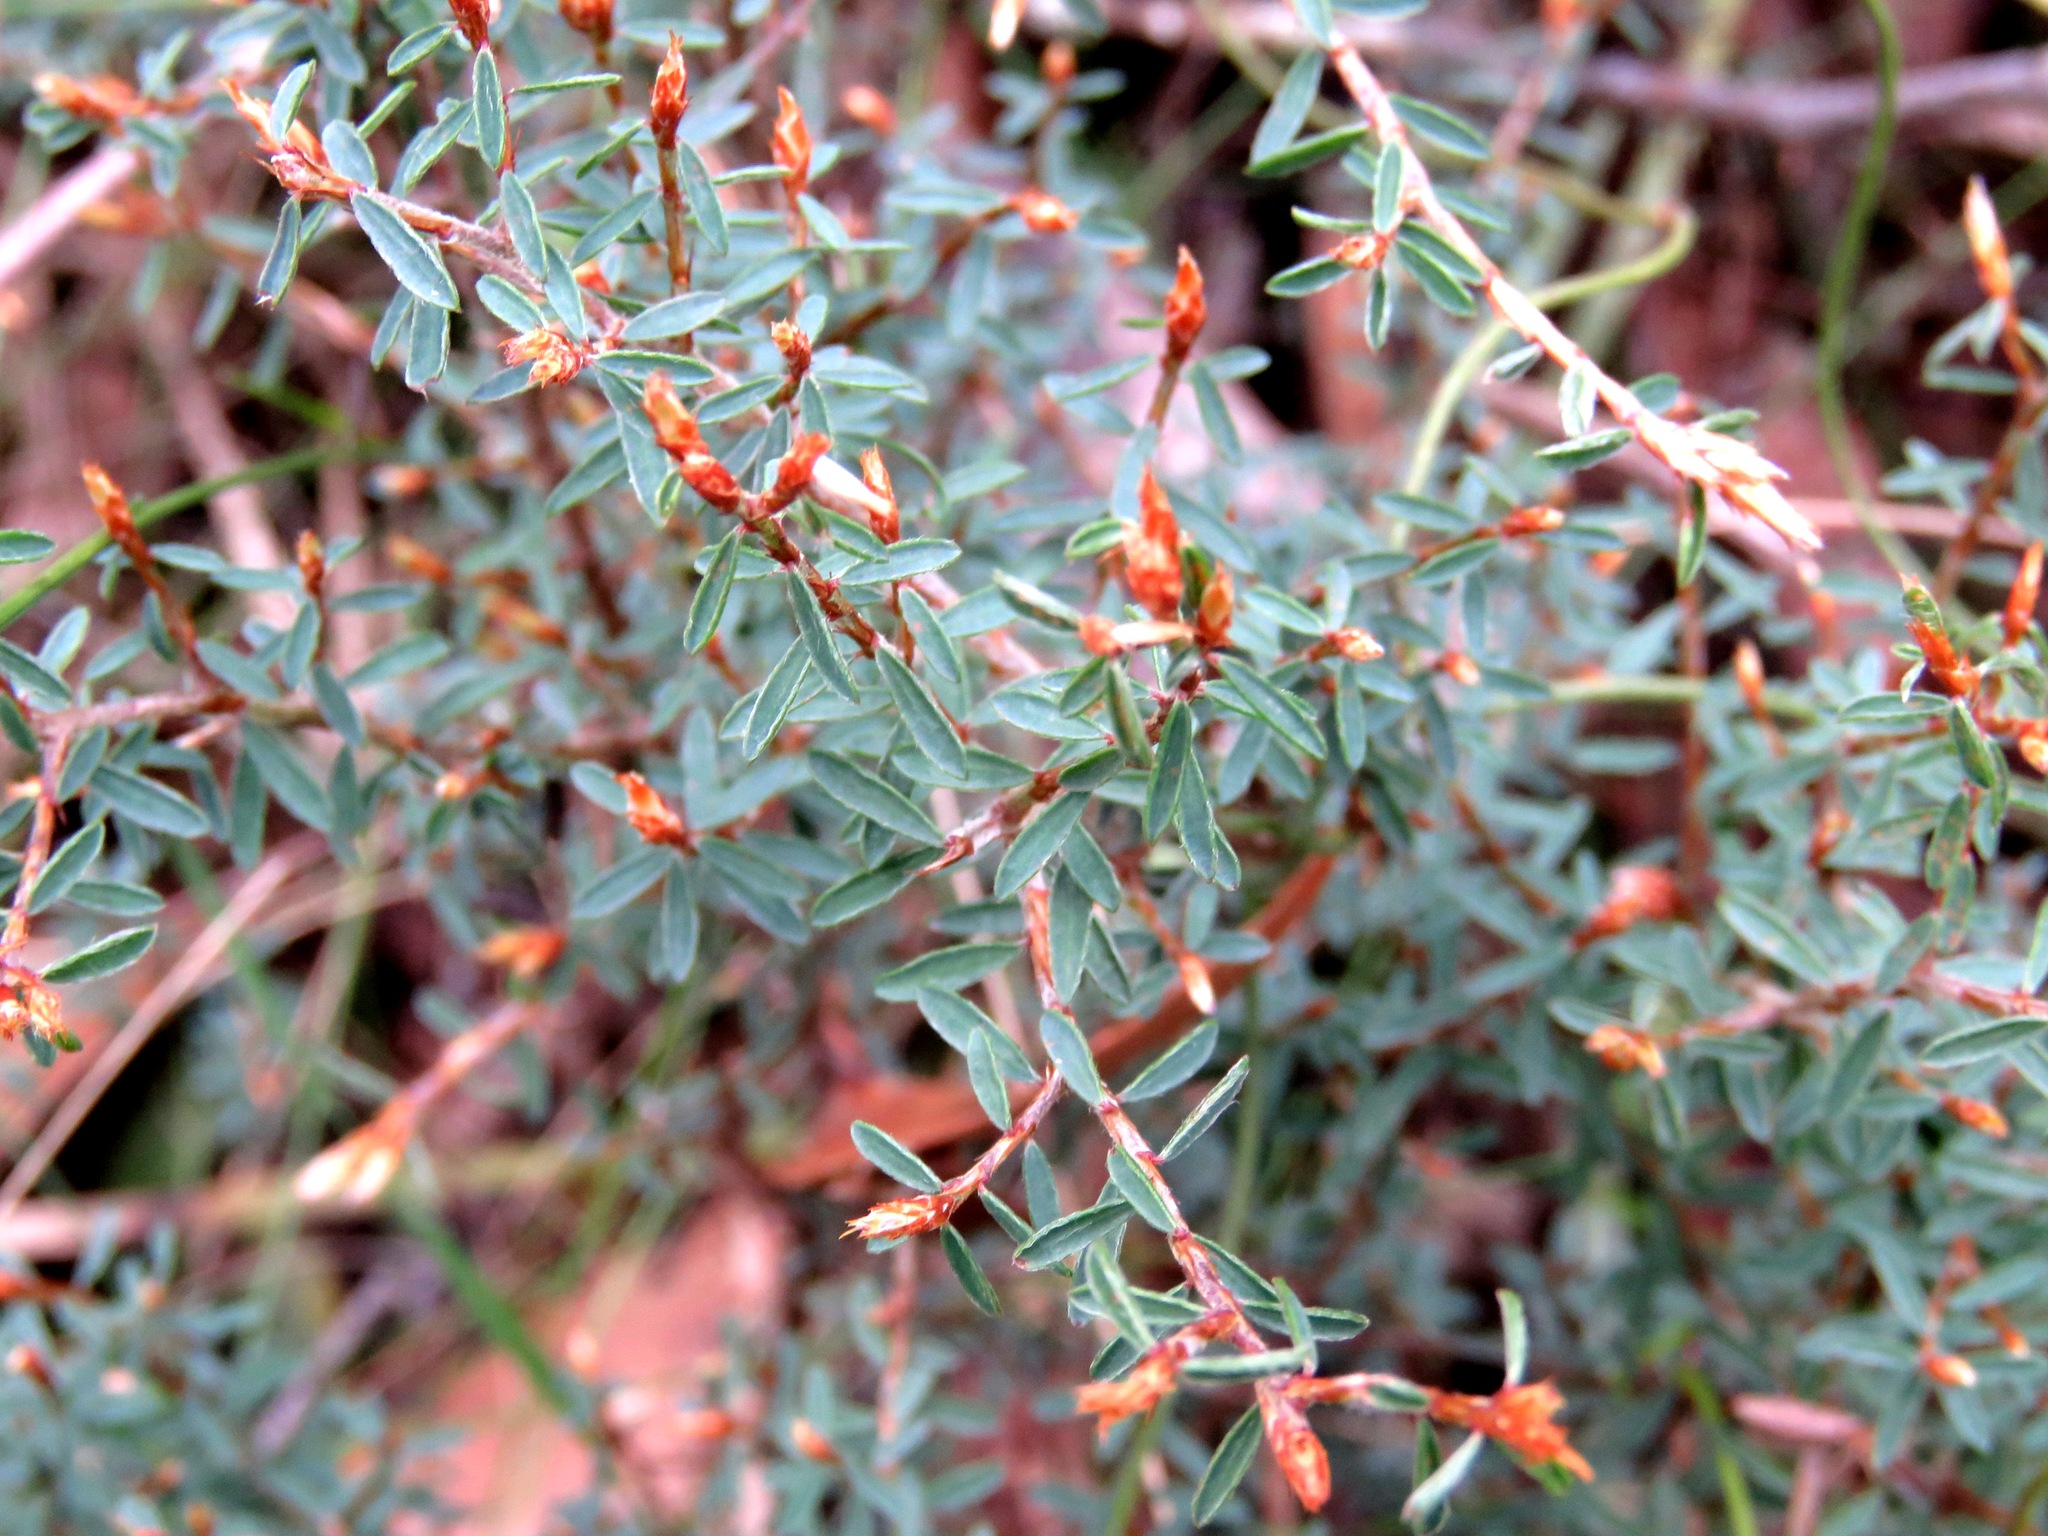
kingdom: Plantae
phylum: Tracheophyta
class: Magnoliopsida
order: Fabales
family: Fabaceae
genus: Pultenaea
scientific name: Pultenaea reflexifolia
